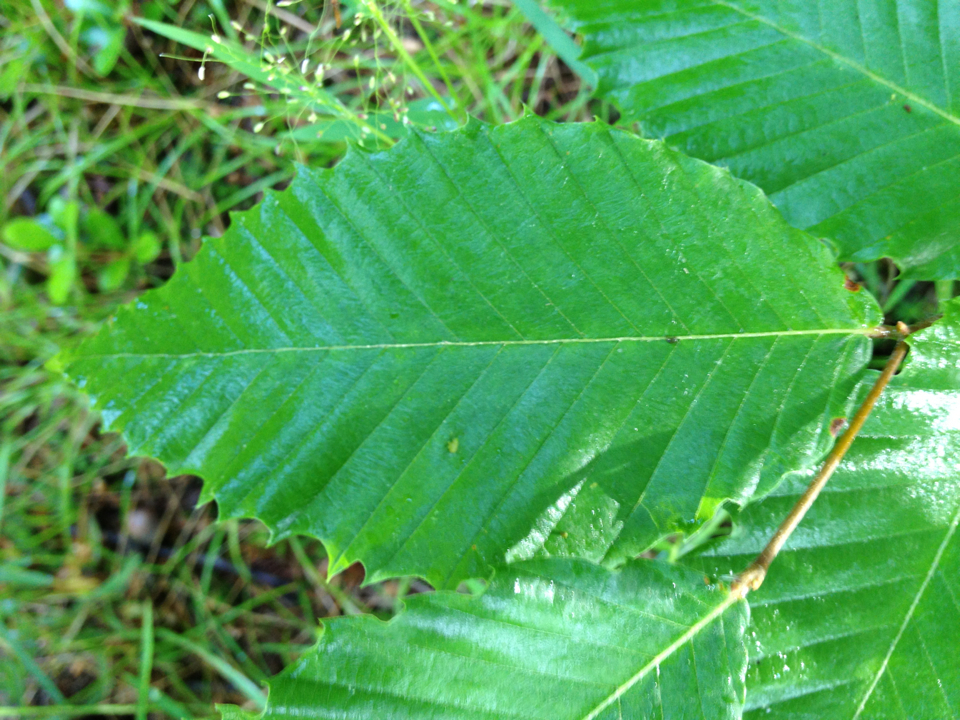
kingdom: Plantae
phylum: Tracheophyta
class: Magnoliopsida
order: Fagales
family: Fagaceae
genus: Fagus
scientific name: Fagus grandifolia
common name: American beech
